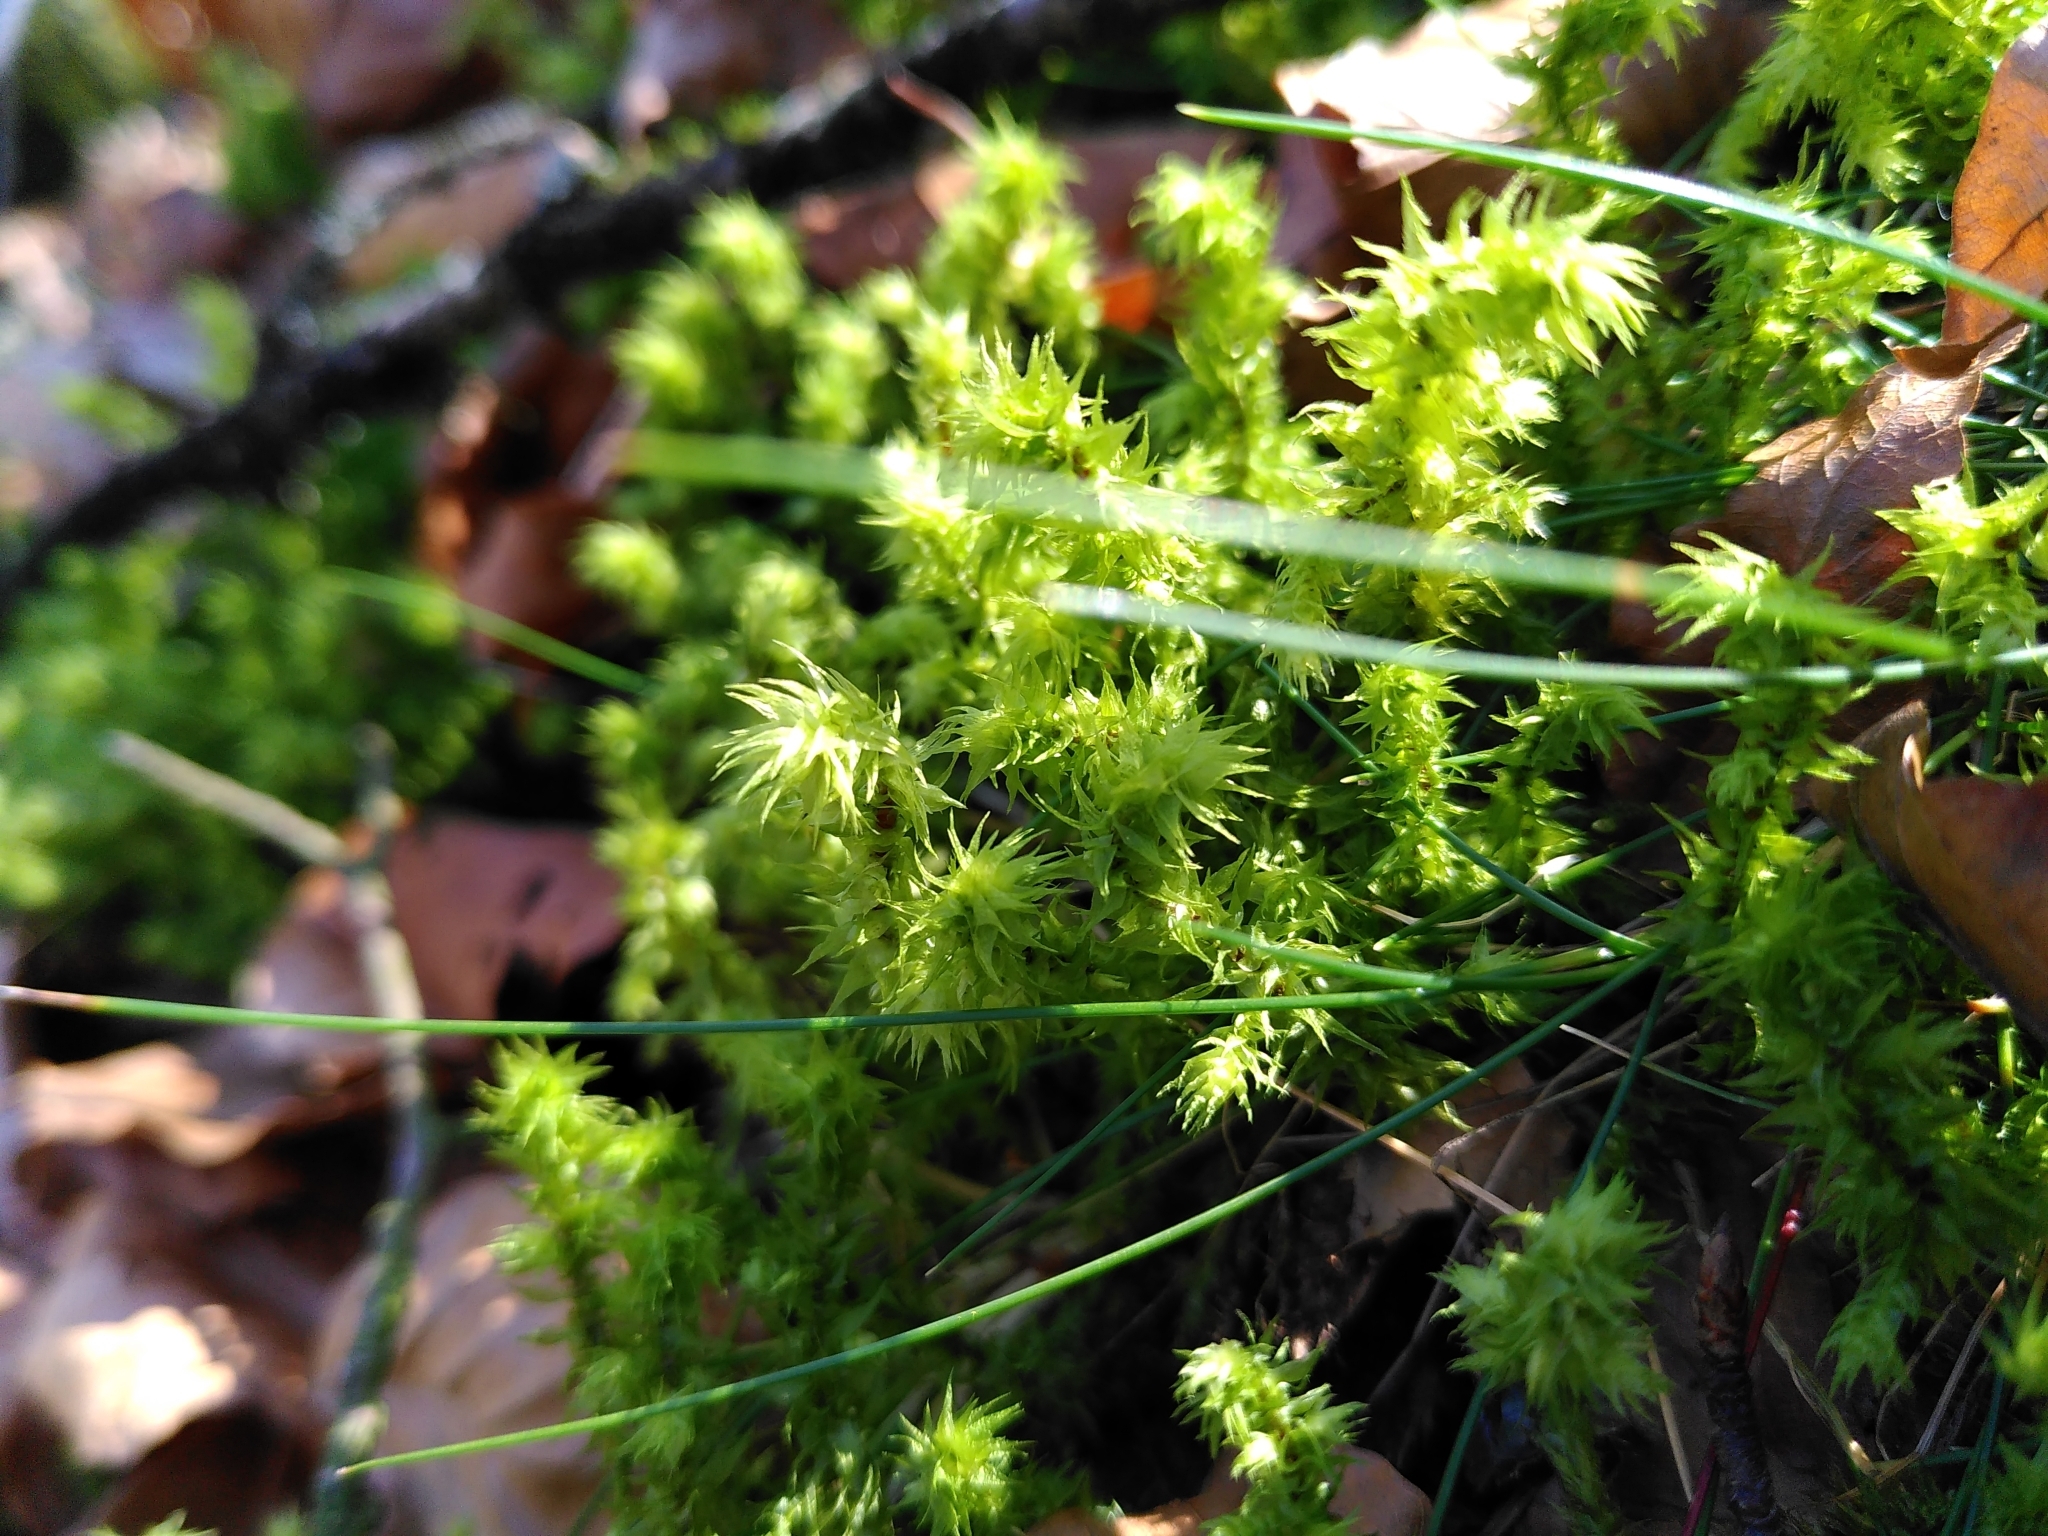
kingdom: Plantae
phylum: Bryophyta
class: Bryopsida
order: Hypnales
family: Hylocomiaceae
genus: Hylocomiadelphus
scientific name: Hylocomiadelphus triquetrus
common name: Rough goose neck moss
